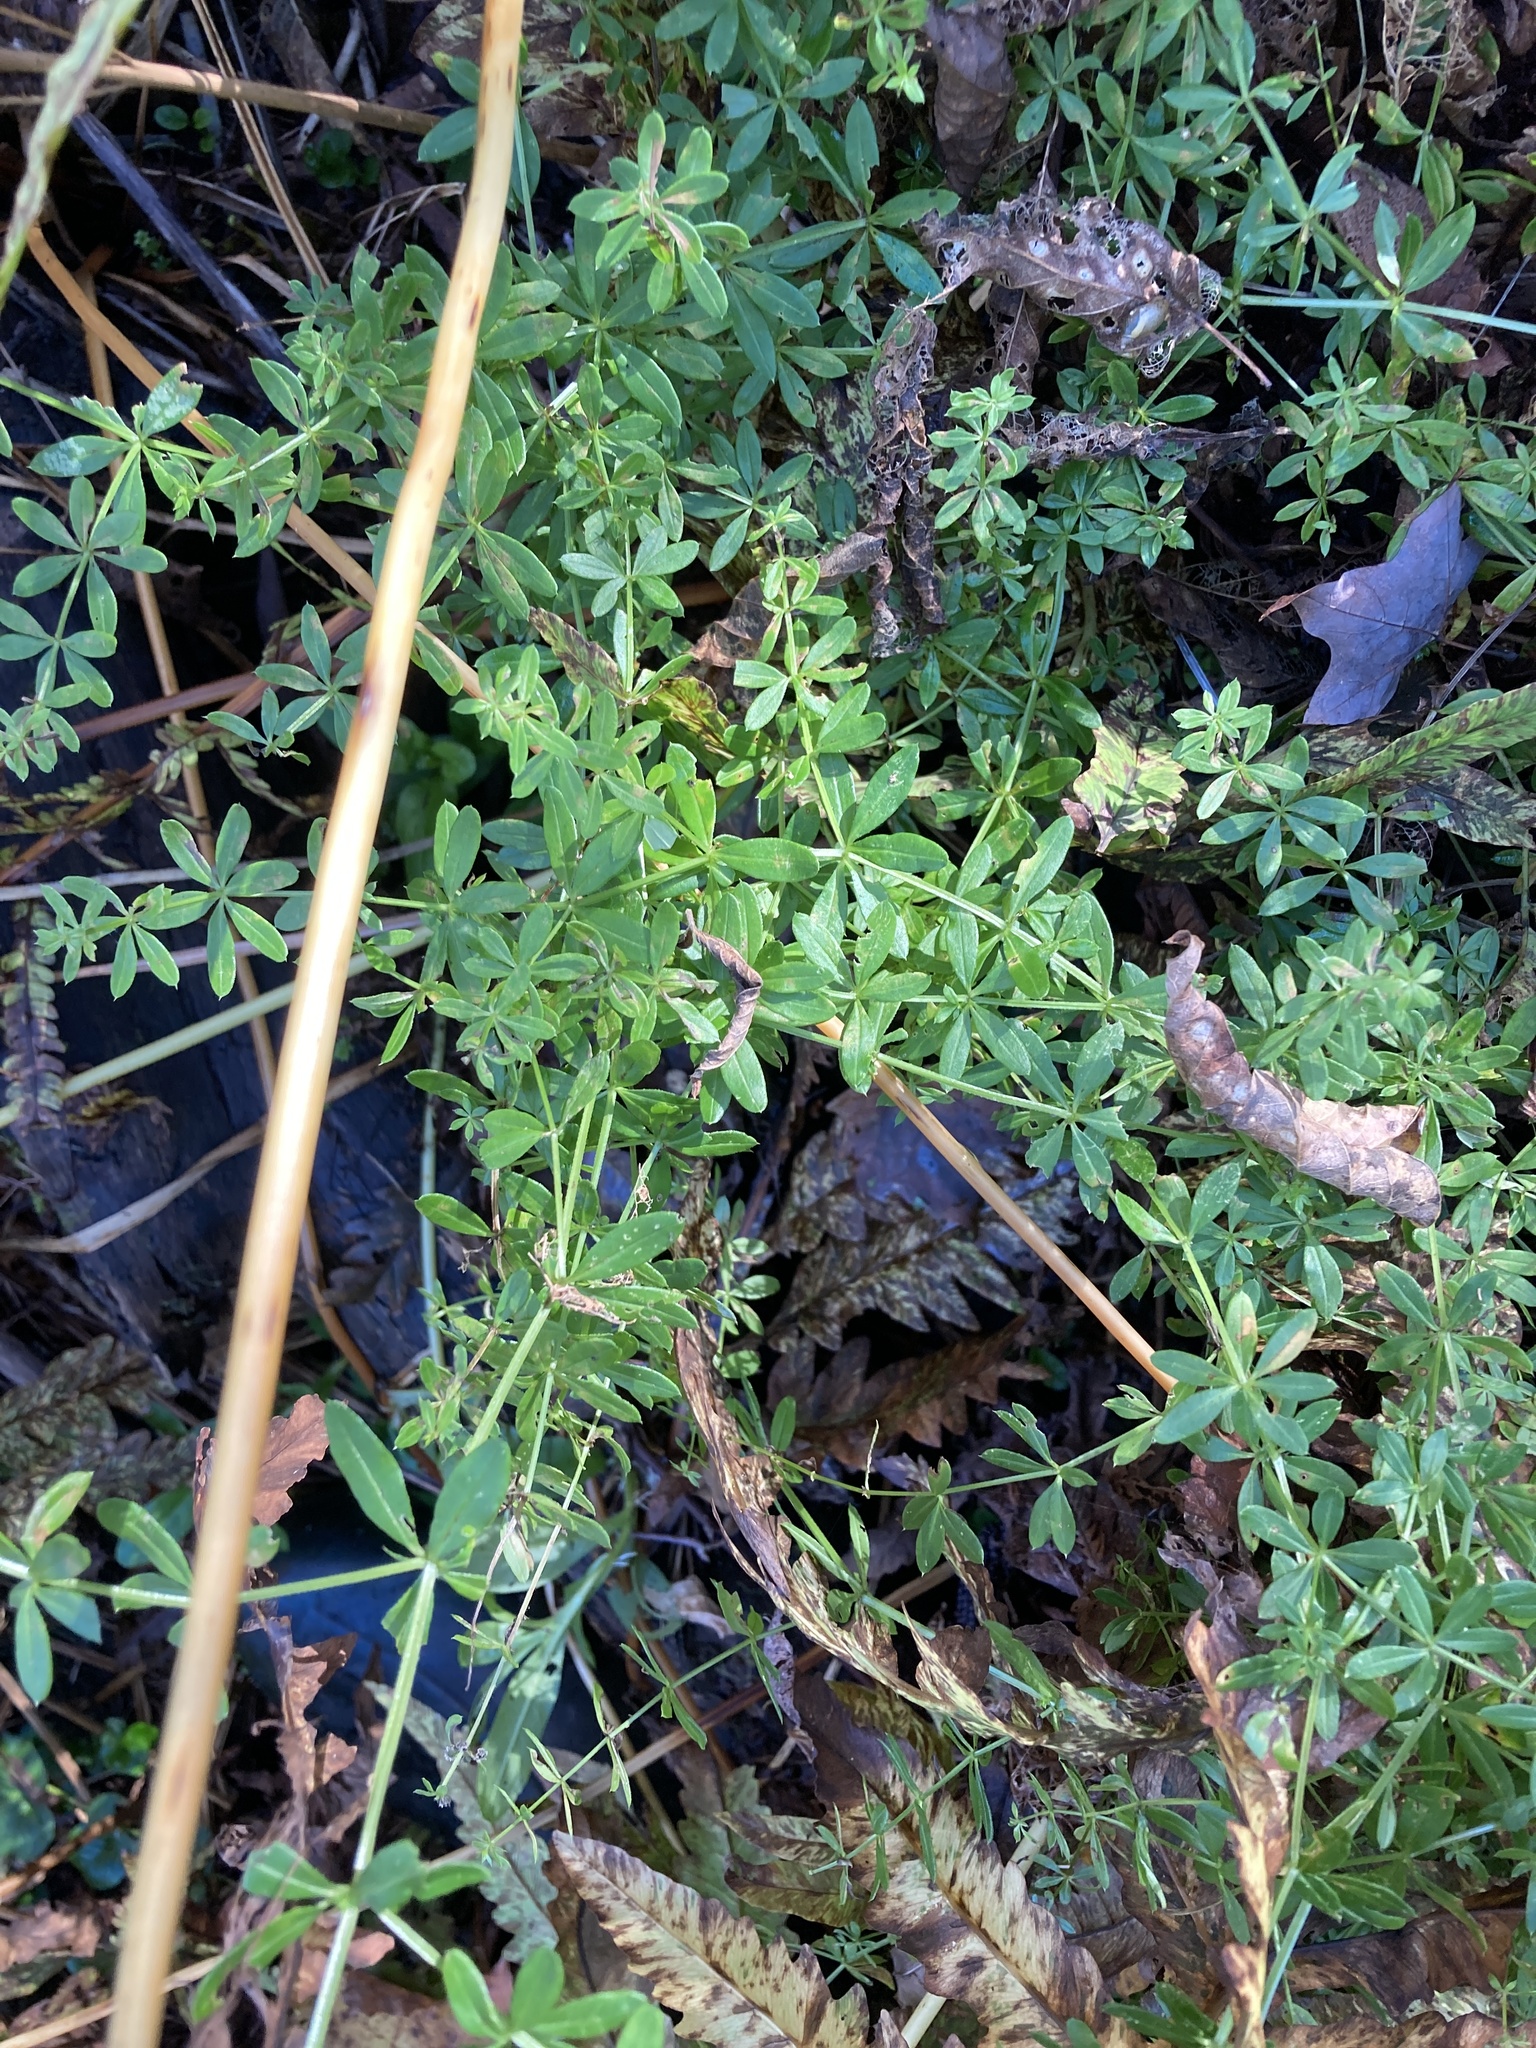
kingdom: Plantae
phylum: Tracheophyta
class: Magnoliopsida
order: Gentianales
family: Rubiaceae
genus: Galium
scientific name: Galium asprellum
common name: Rough bedstraw
